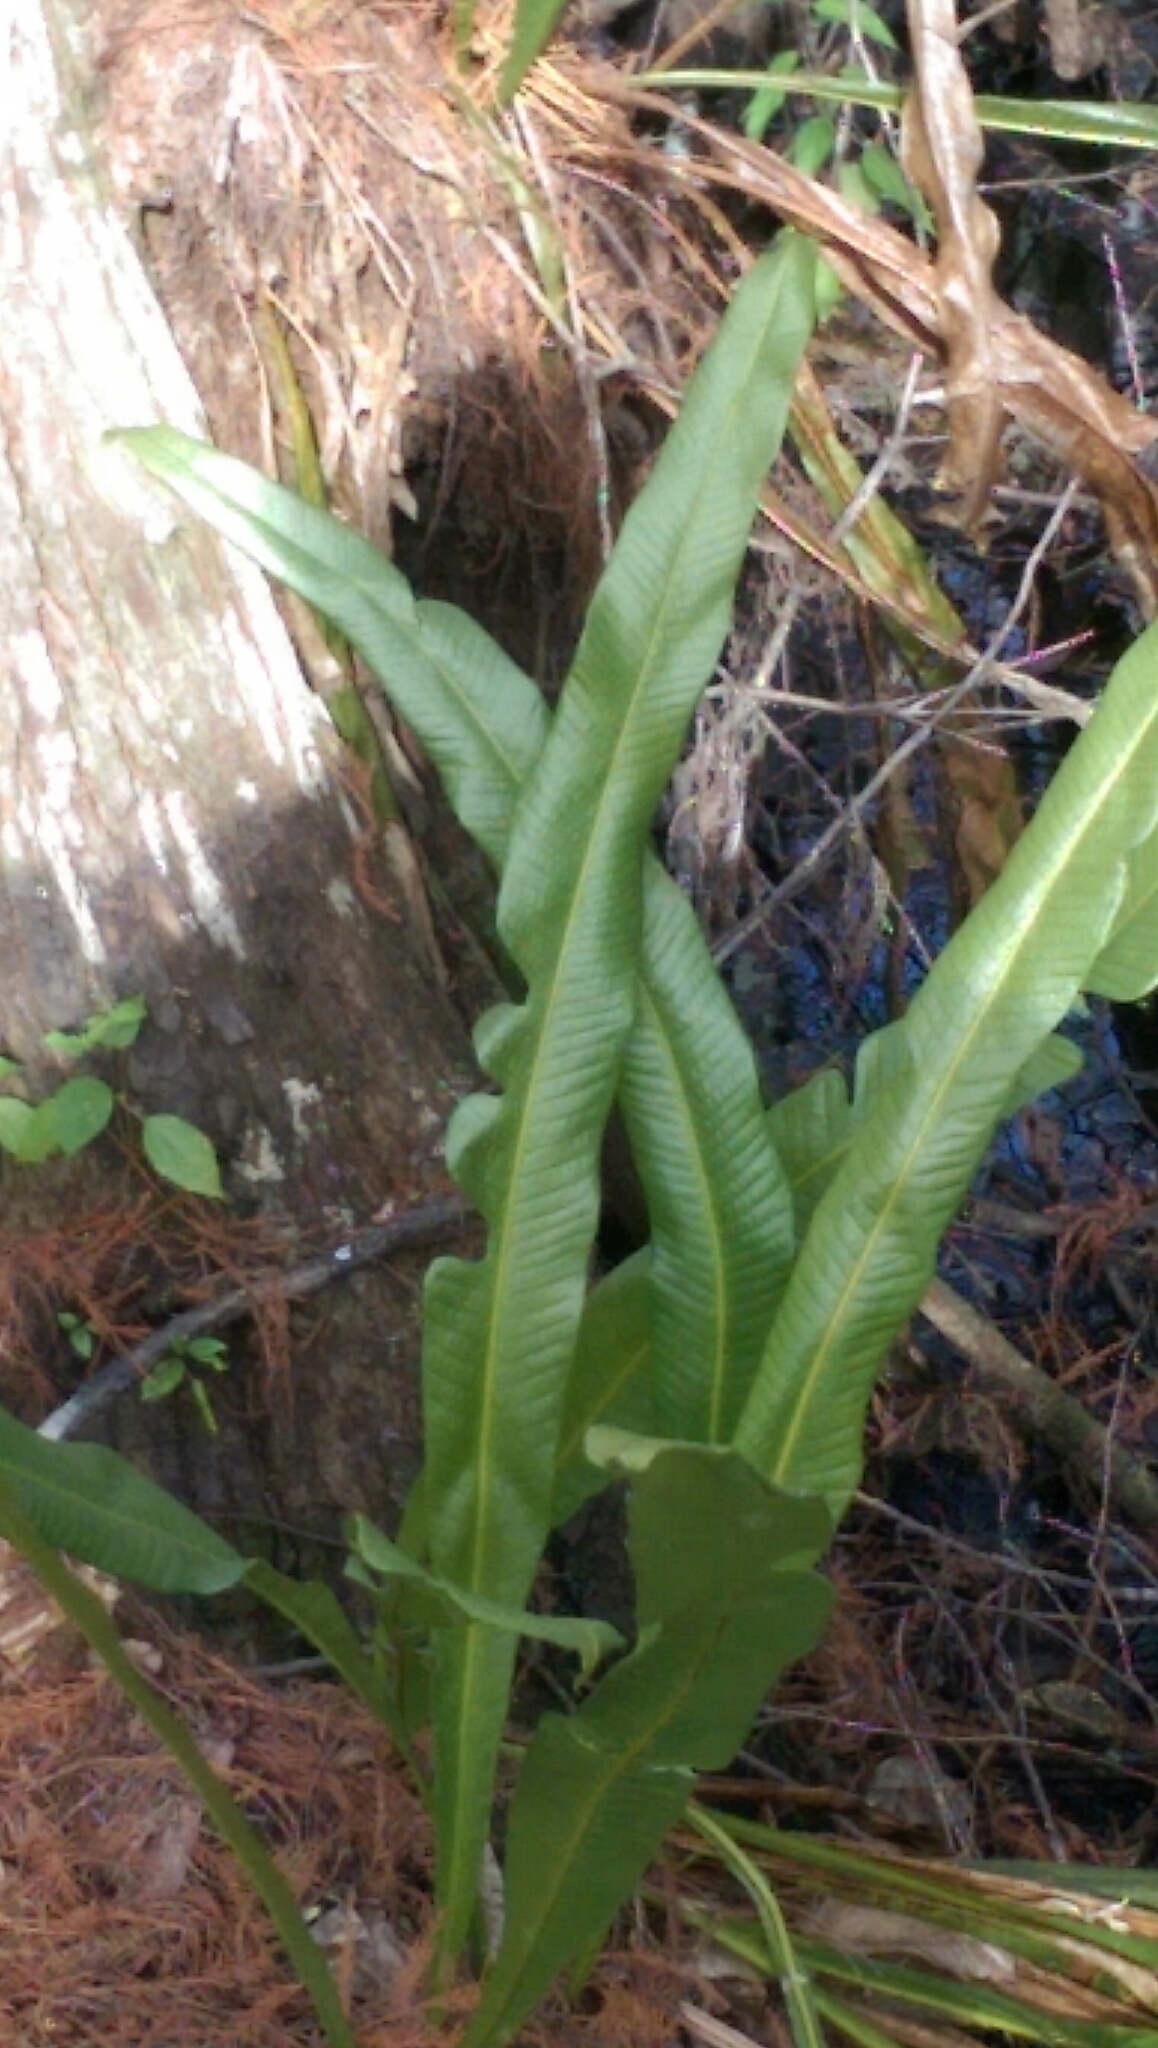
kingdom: Plantae
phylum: Tracheophyta
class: Polypodiopsida
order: Polypodiales
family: Polypodiaceae
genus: Campyloneurum
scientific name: Campyloneurum phyllitidis
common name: Cow-tongue fern
